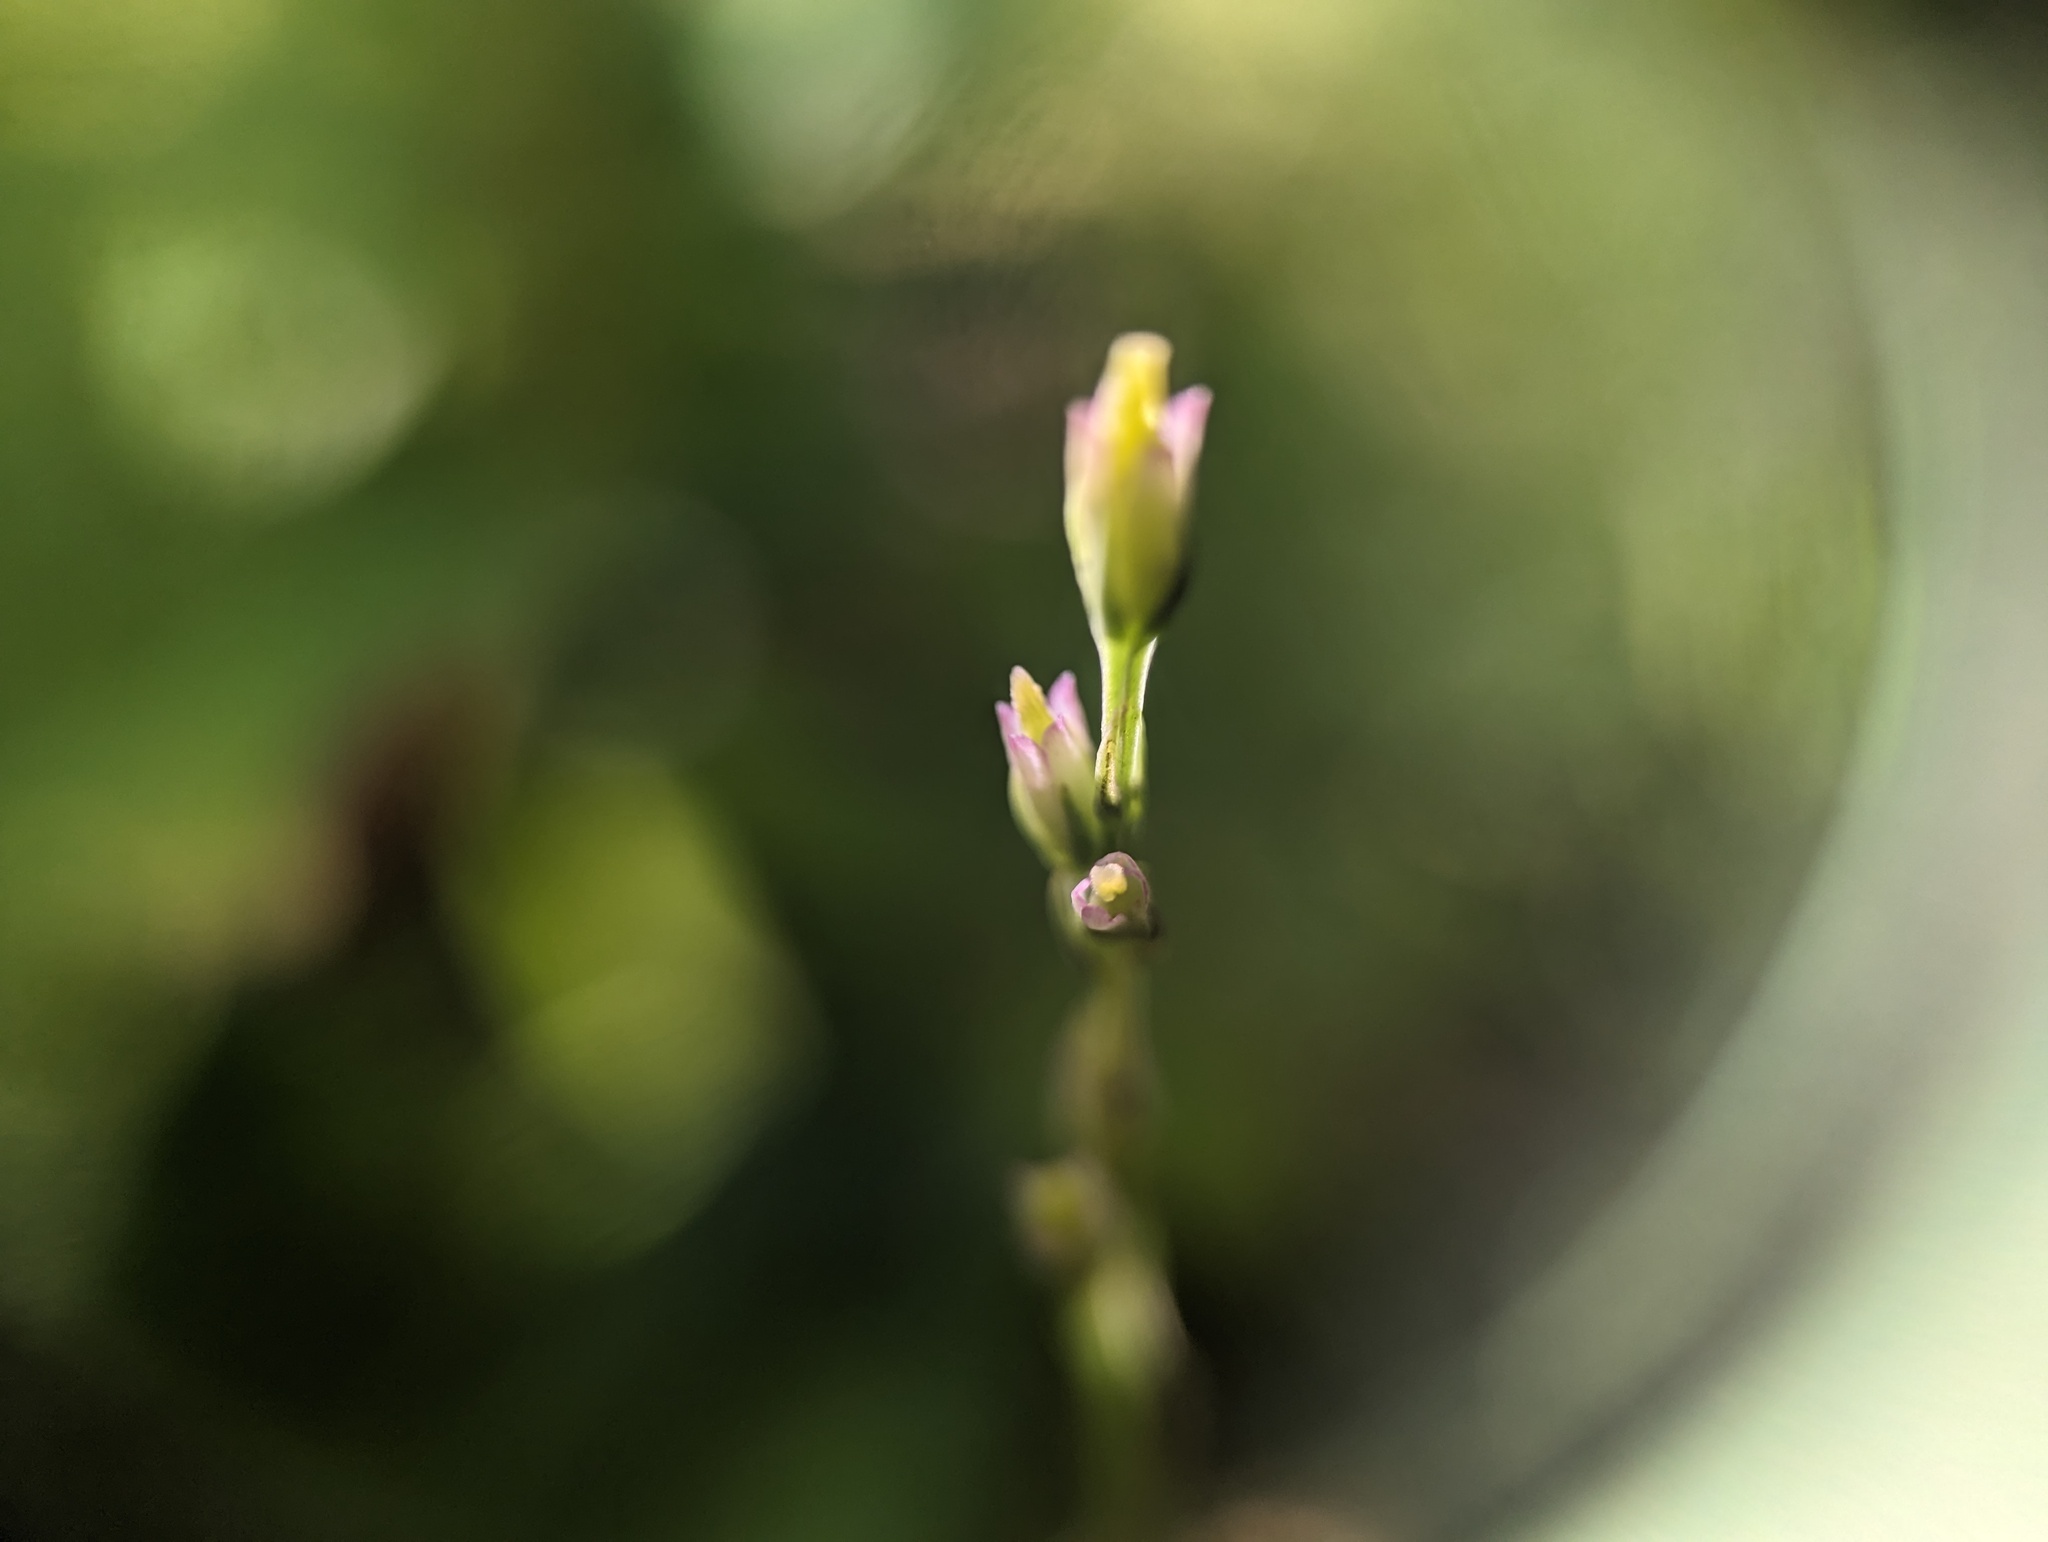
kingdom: Plantae
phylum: Tracheophyta
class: Magnoliopsida
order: Gentianales
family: Gentianaceae
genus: Bartonia
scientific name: Bartonia virginica
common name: Yellow bartonia
